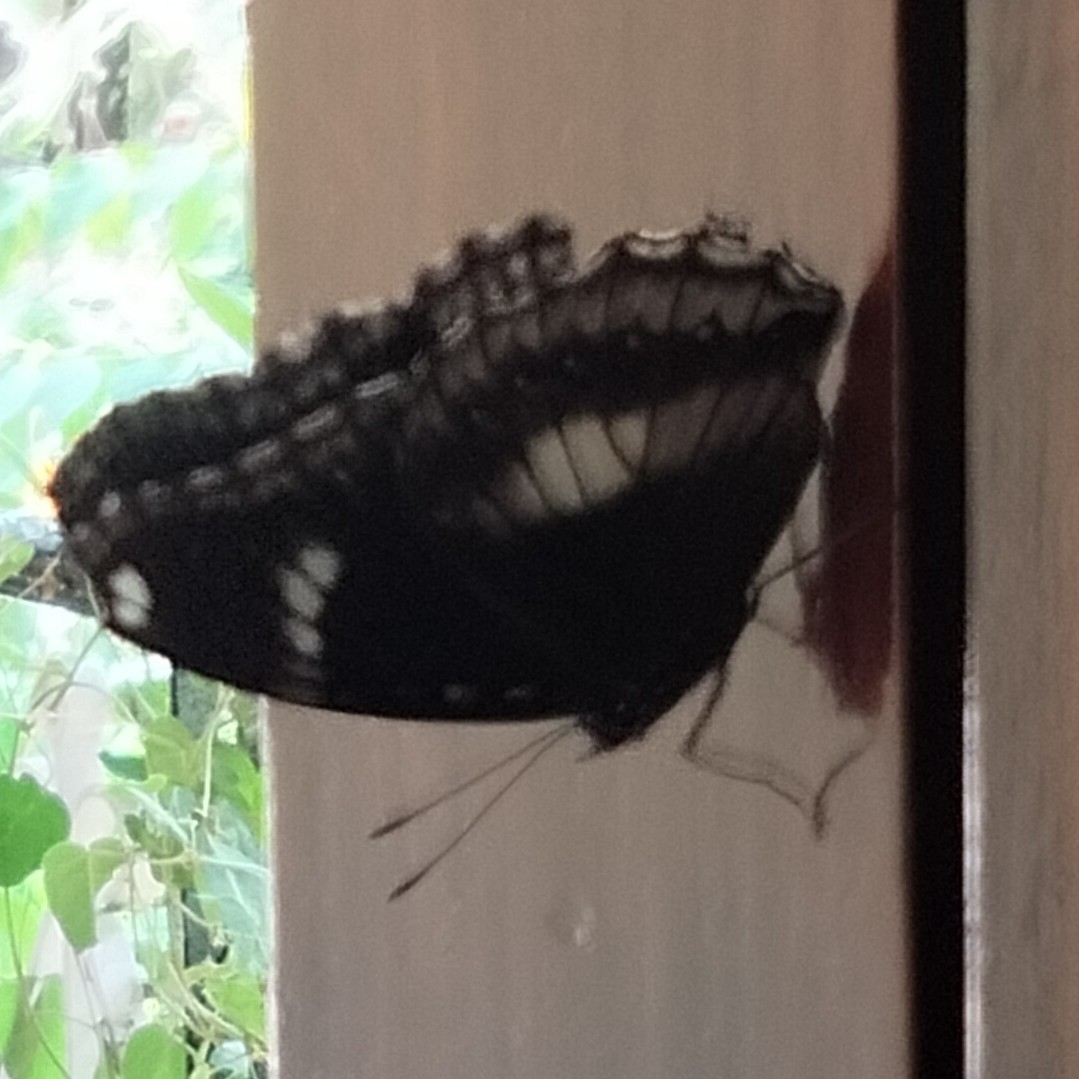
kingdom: Animalia
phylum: Arthropoda
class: Insecta
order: Lepidoptera
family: Nymphalidae
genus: Hypolimnas
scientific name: Hypolimnas bolina
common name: Great eggfly
